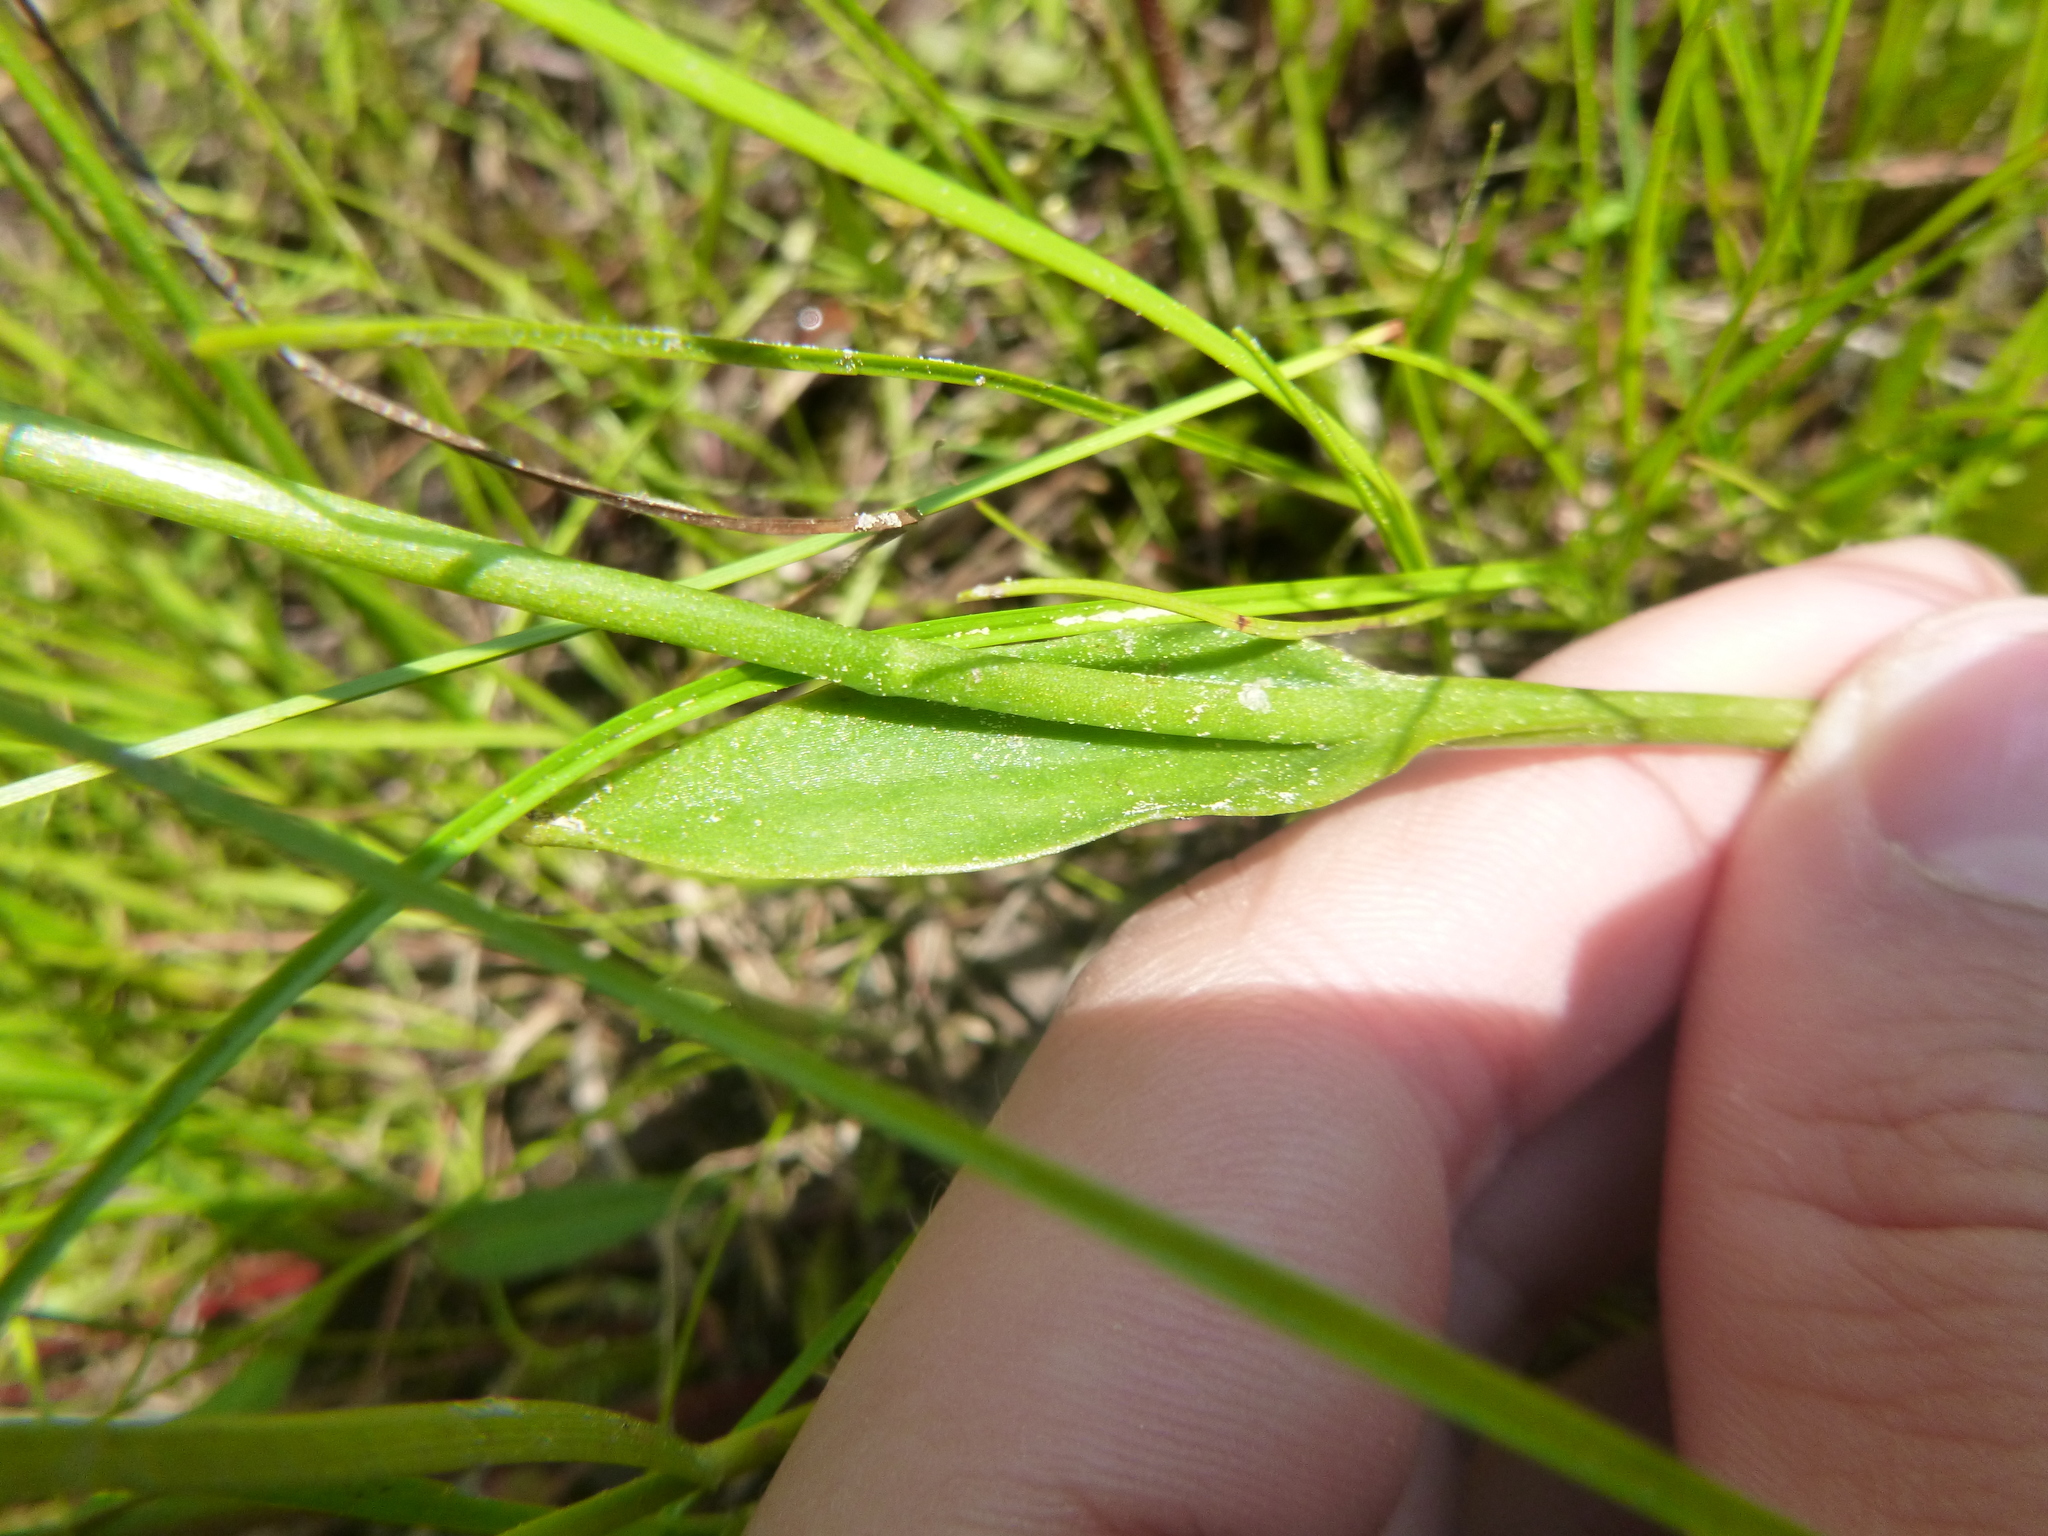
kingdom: Plantae
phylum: Tracheophyta
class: Liliopsida
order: Asparagales
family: Orchidaceae
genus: Pogonia
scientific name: Pogonia ophioglossoides
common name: Rose pogonia
